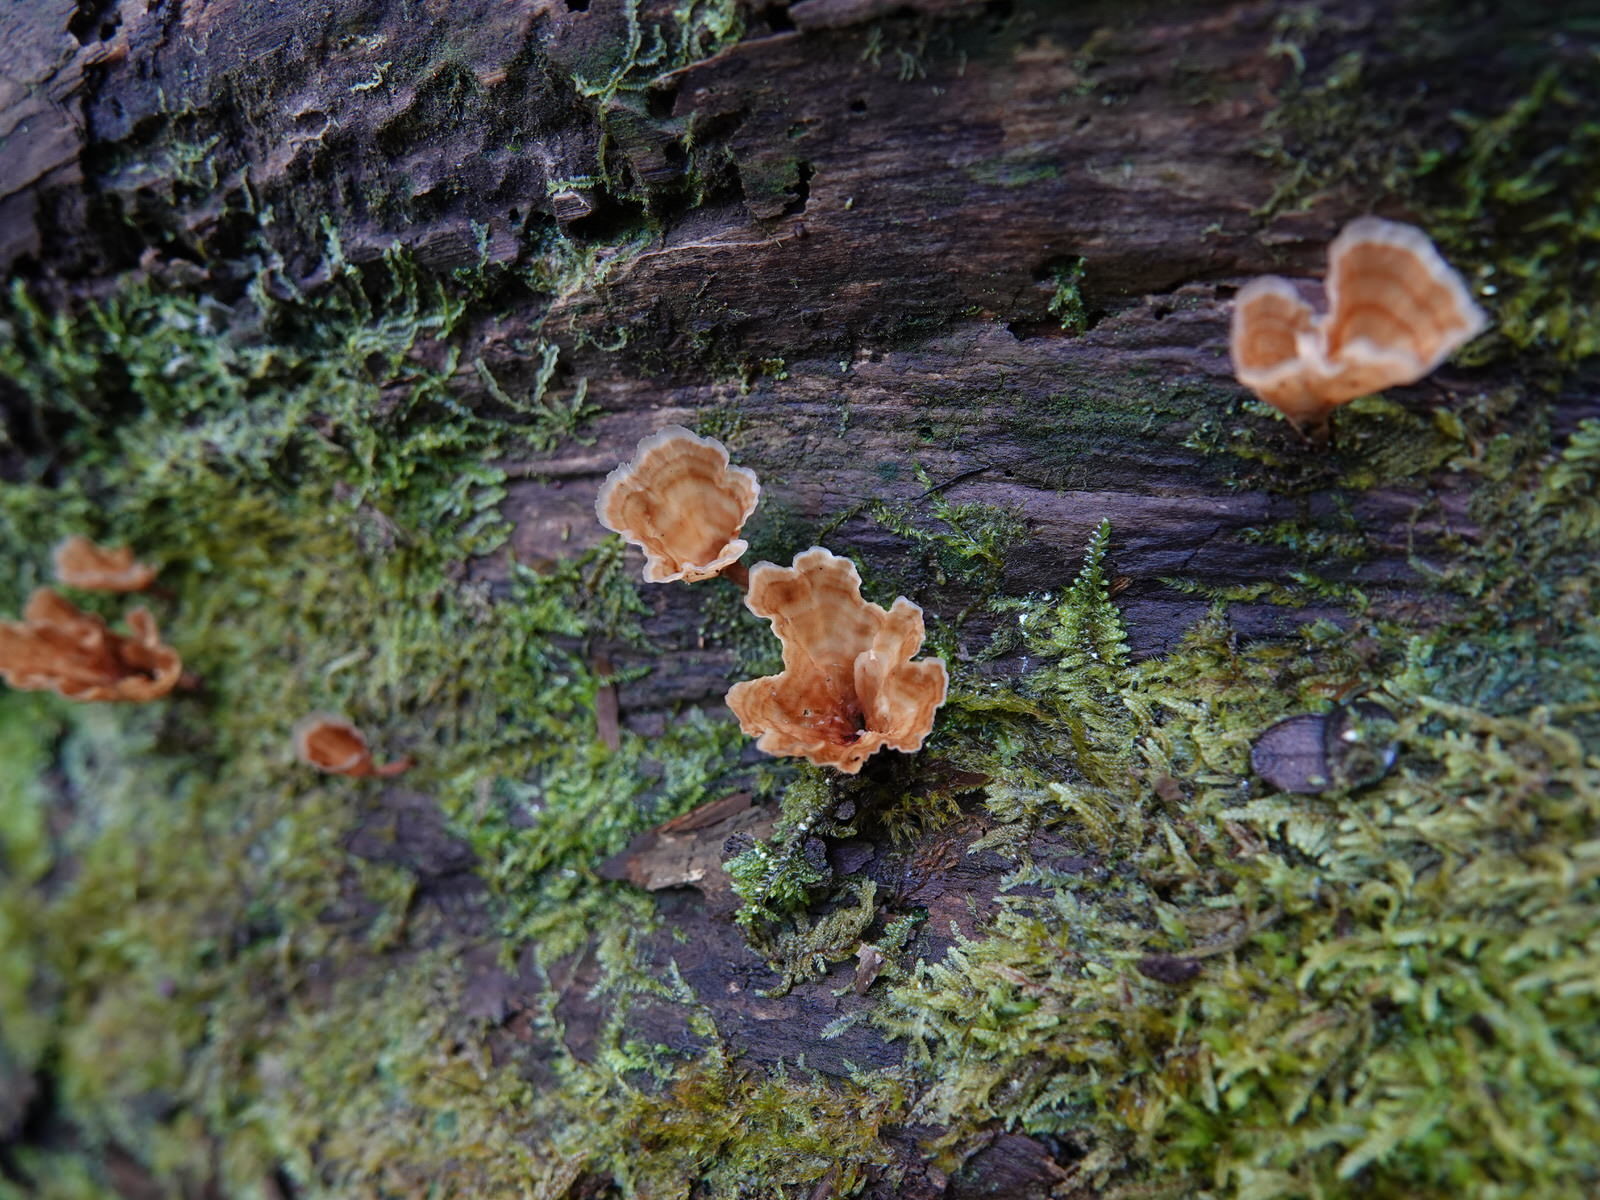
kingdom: Fungi
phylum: Basidiomycota
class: Agaricomycetes
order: Polyporales
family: Podoscyphaceae
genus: Podoscypha
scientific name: Podoscypha petalodes
